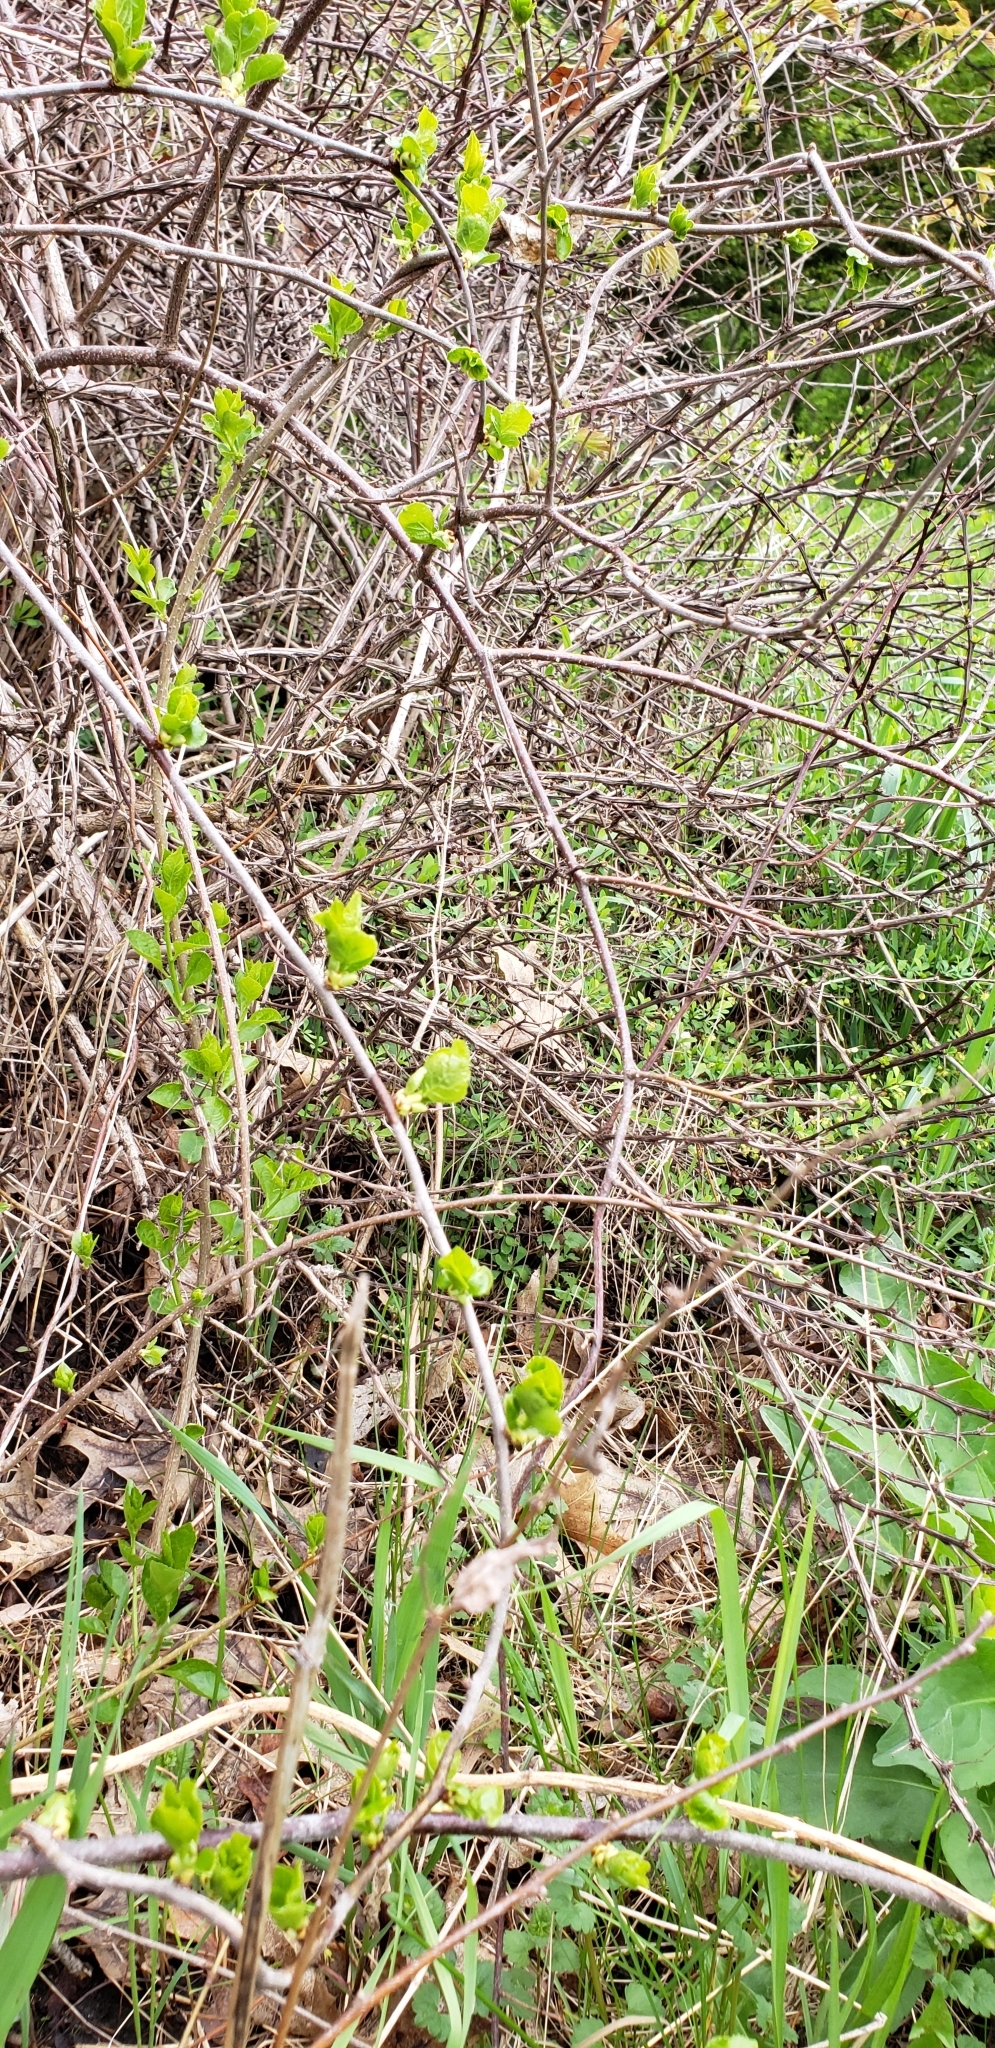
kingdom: Plantae
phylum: Tracheophyta
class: Magnoliopsida
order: Celastrales
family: Celastraceae
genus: Celastrus
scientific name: Celastrus orbiculatus
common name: Oriental bittersweet
